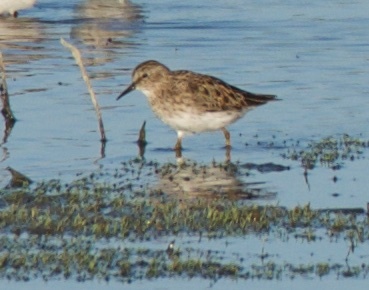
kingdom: Animalia
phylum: Chordata
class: Aves
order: Charadriiformes
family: Scolopacidae
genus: Calidris
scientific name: Calidris minutilla
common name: Least sandpiper
